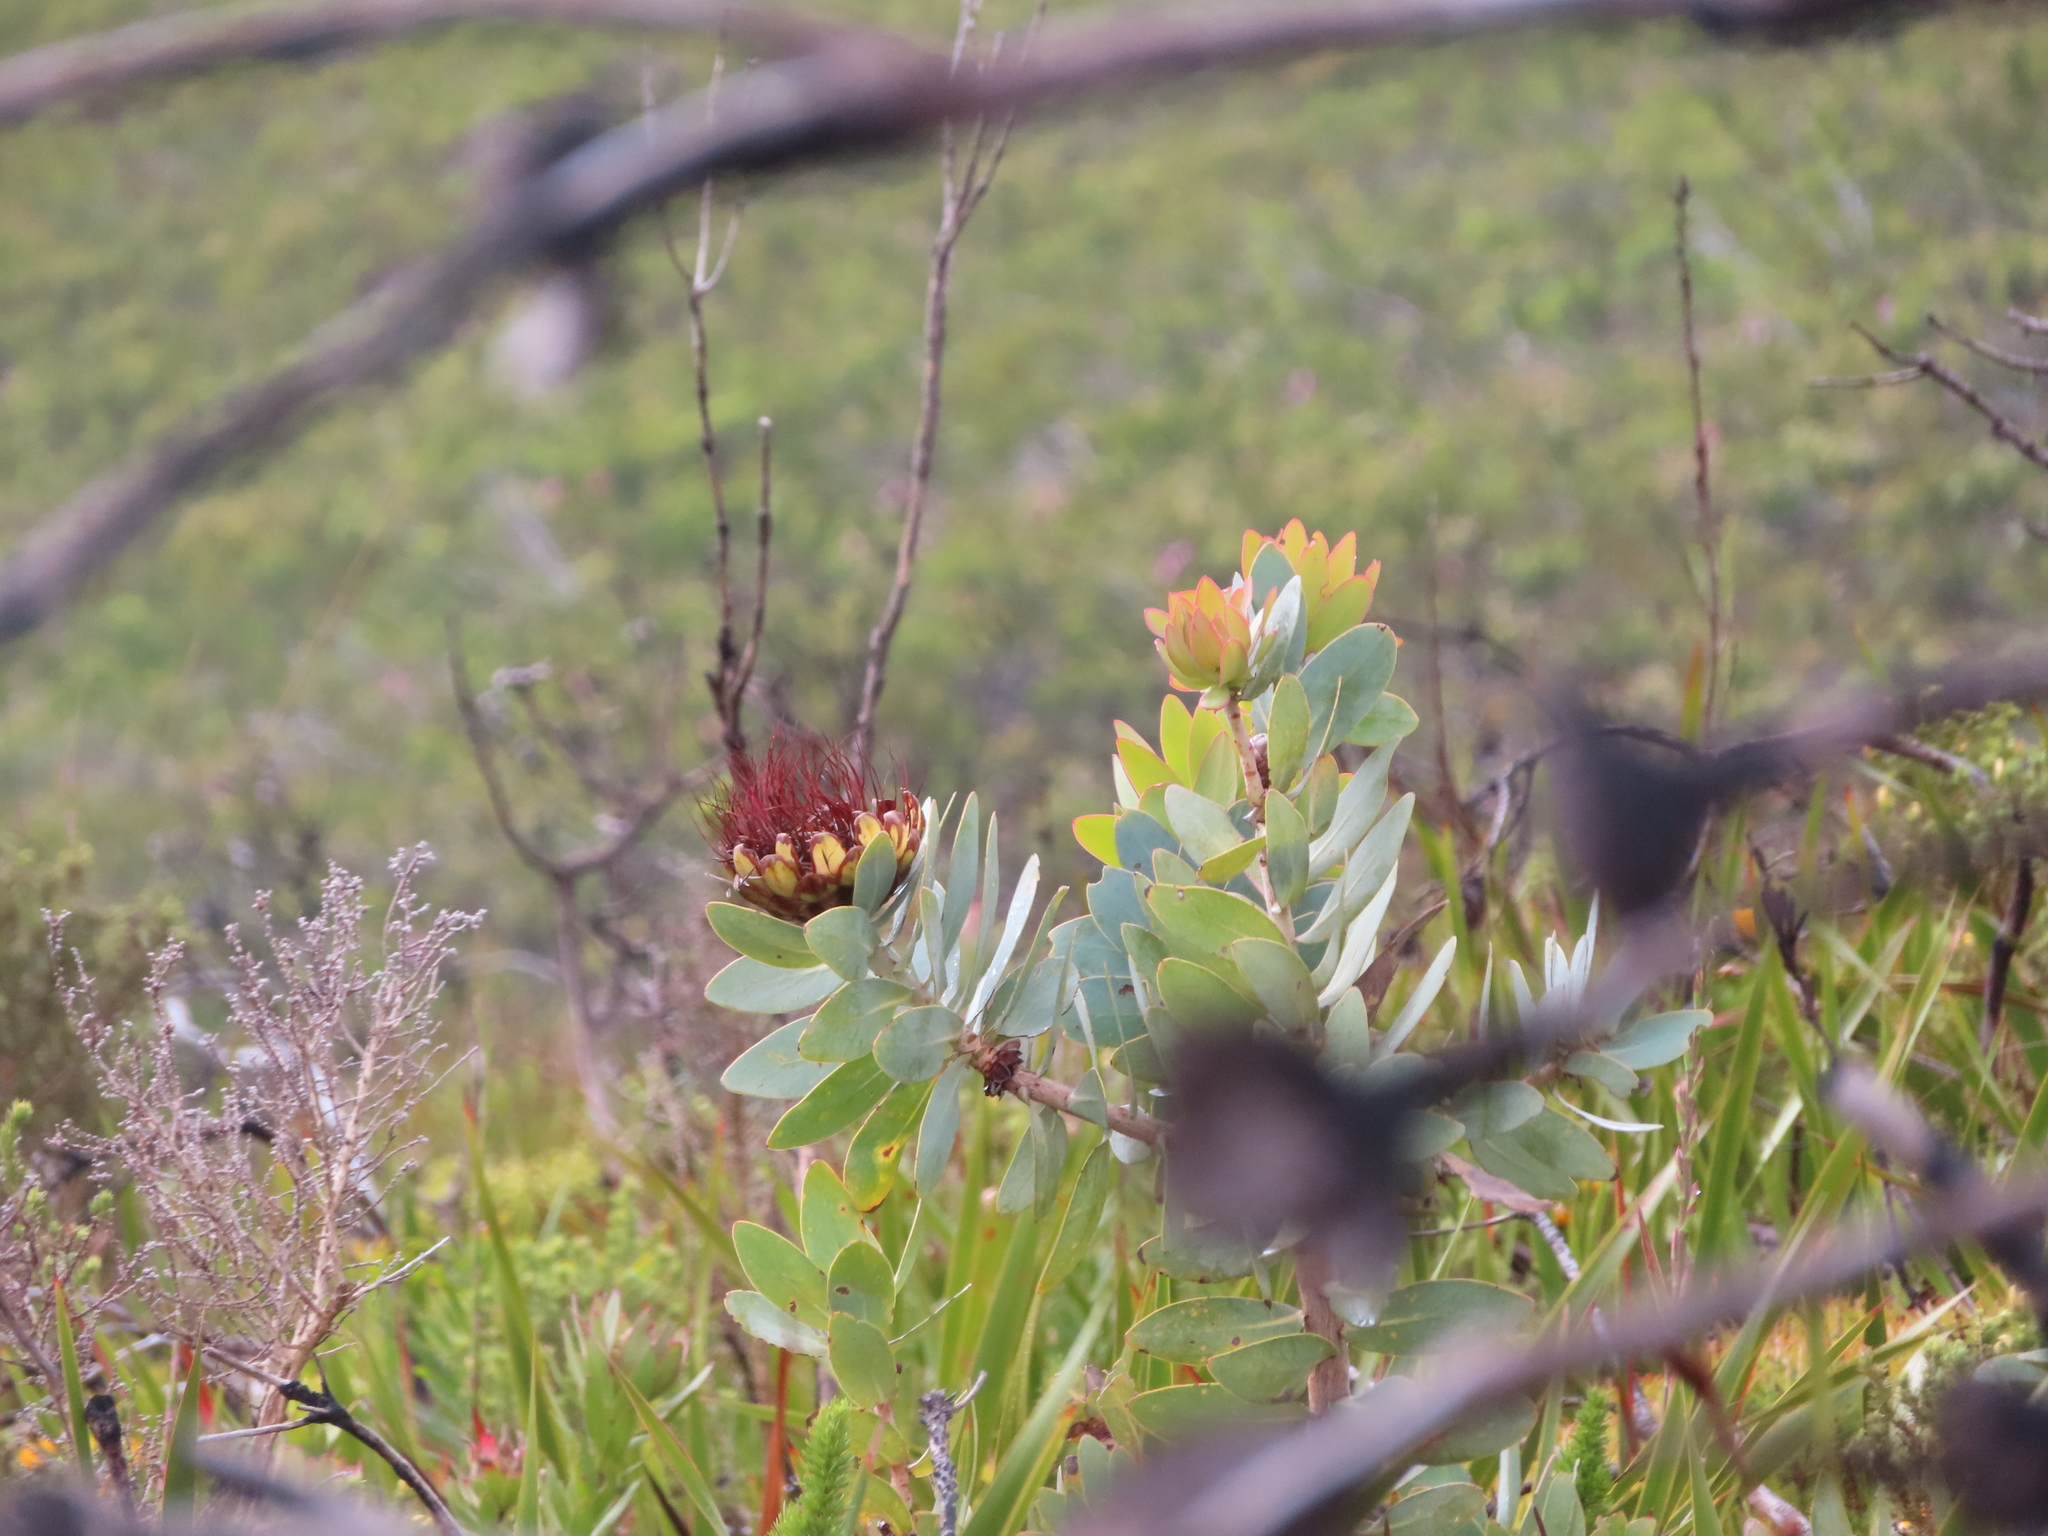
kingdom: Plantae
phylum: Tracheophyta
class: Magnoliopsida
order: Proteales
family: Proteaceae
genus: Protea
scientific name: Protea nitida
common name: Tree protea
